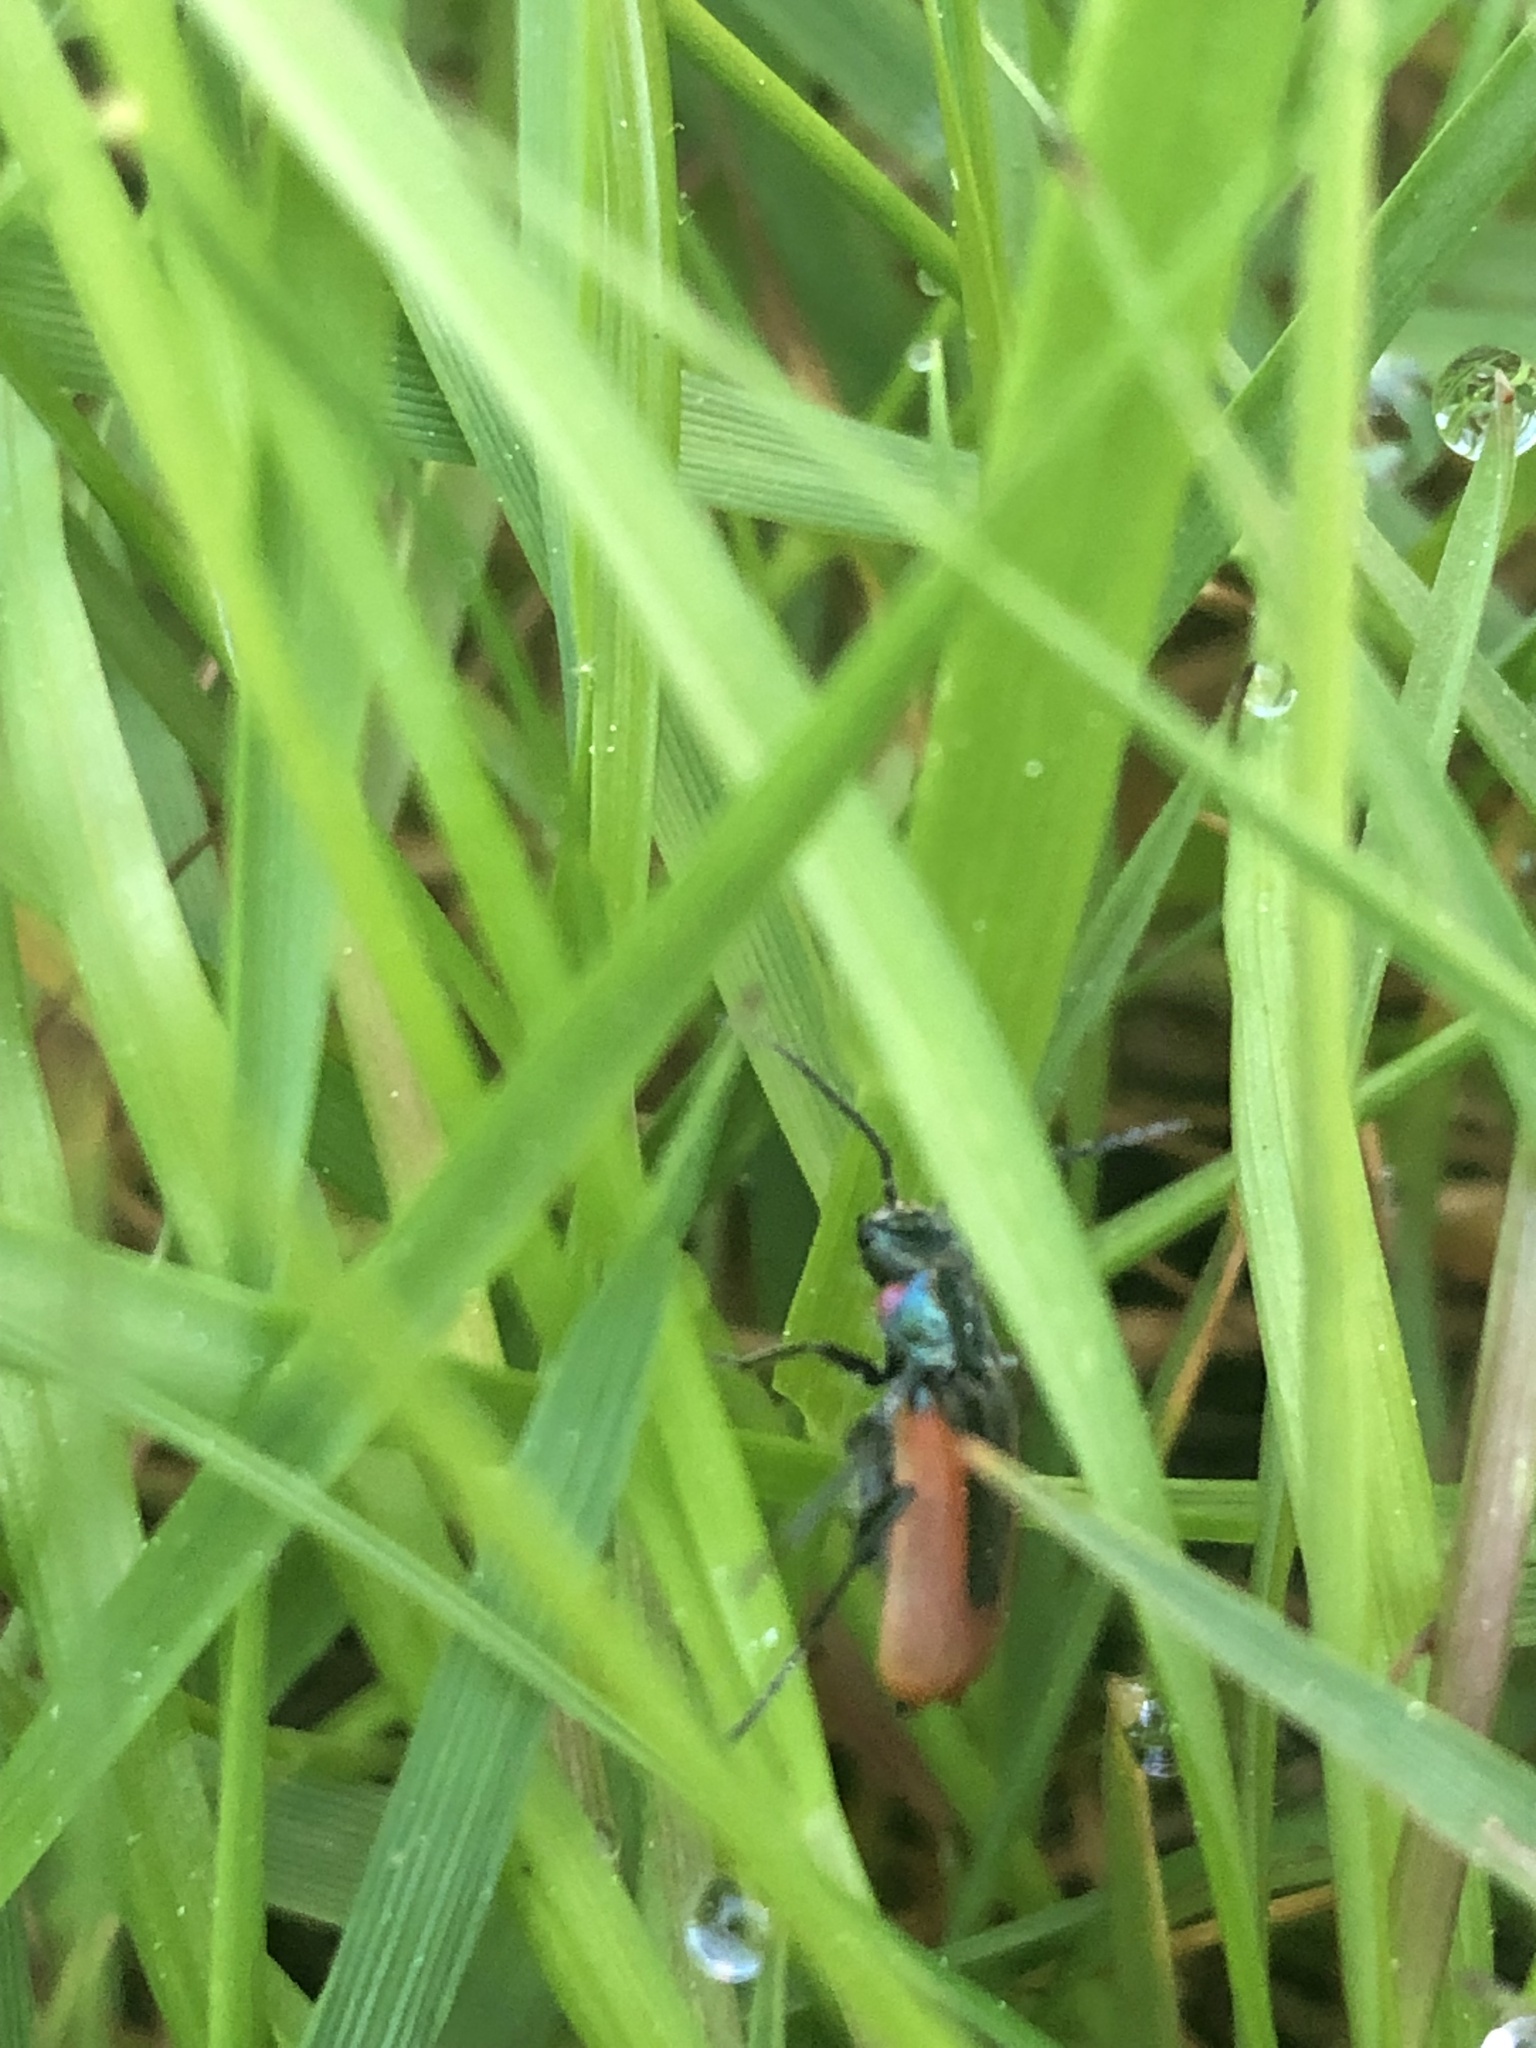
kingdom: Animalia
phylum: Arthropoda
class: Insecta
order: Coleoptera
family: Melyridae
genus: Malachius
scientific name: Malachius aeneus
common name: Scarlet malachite beetle
